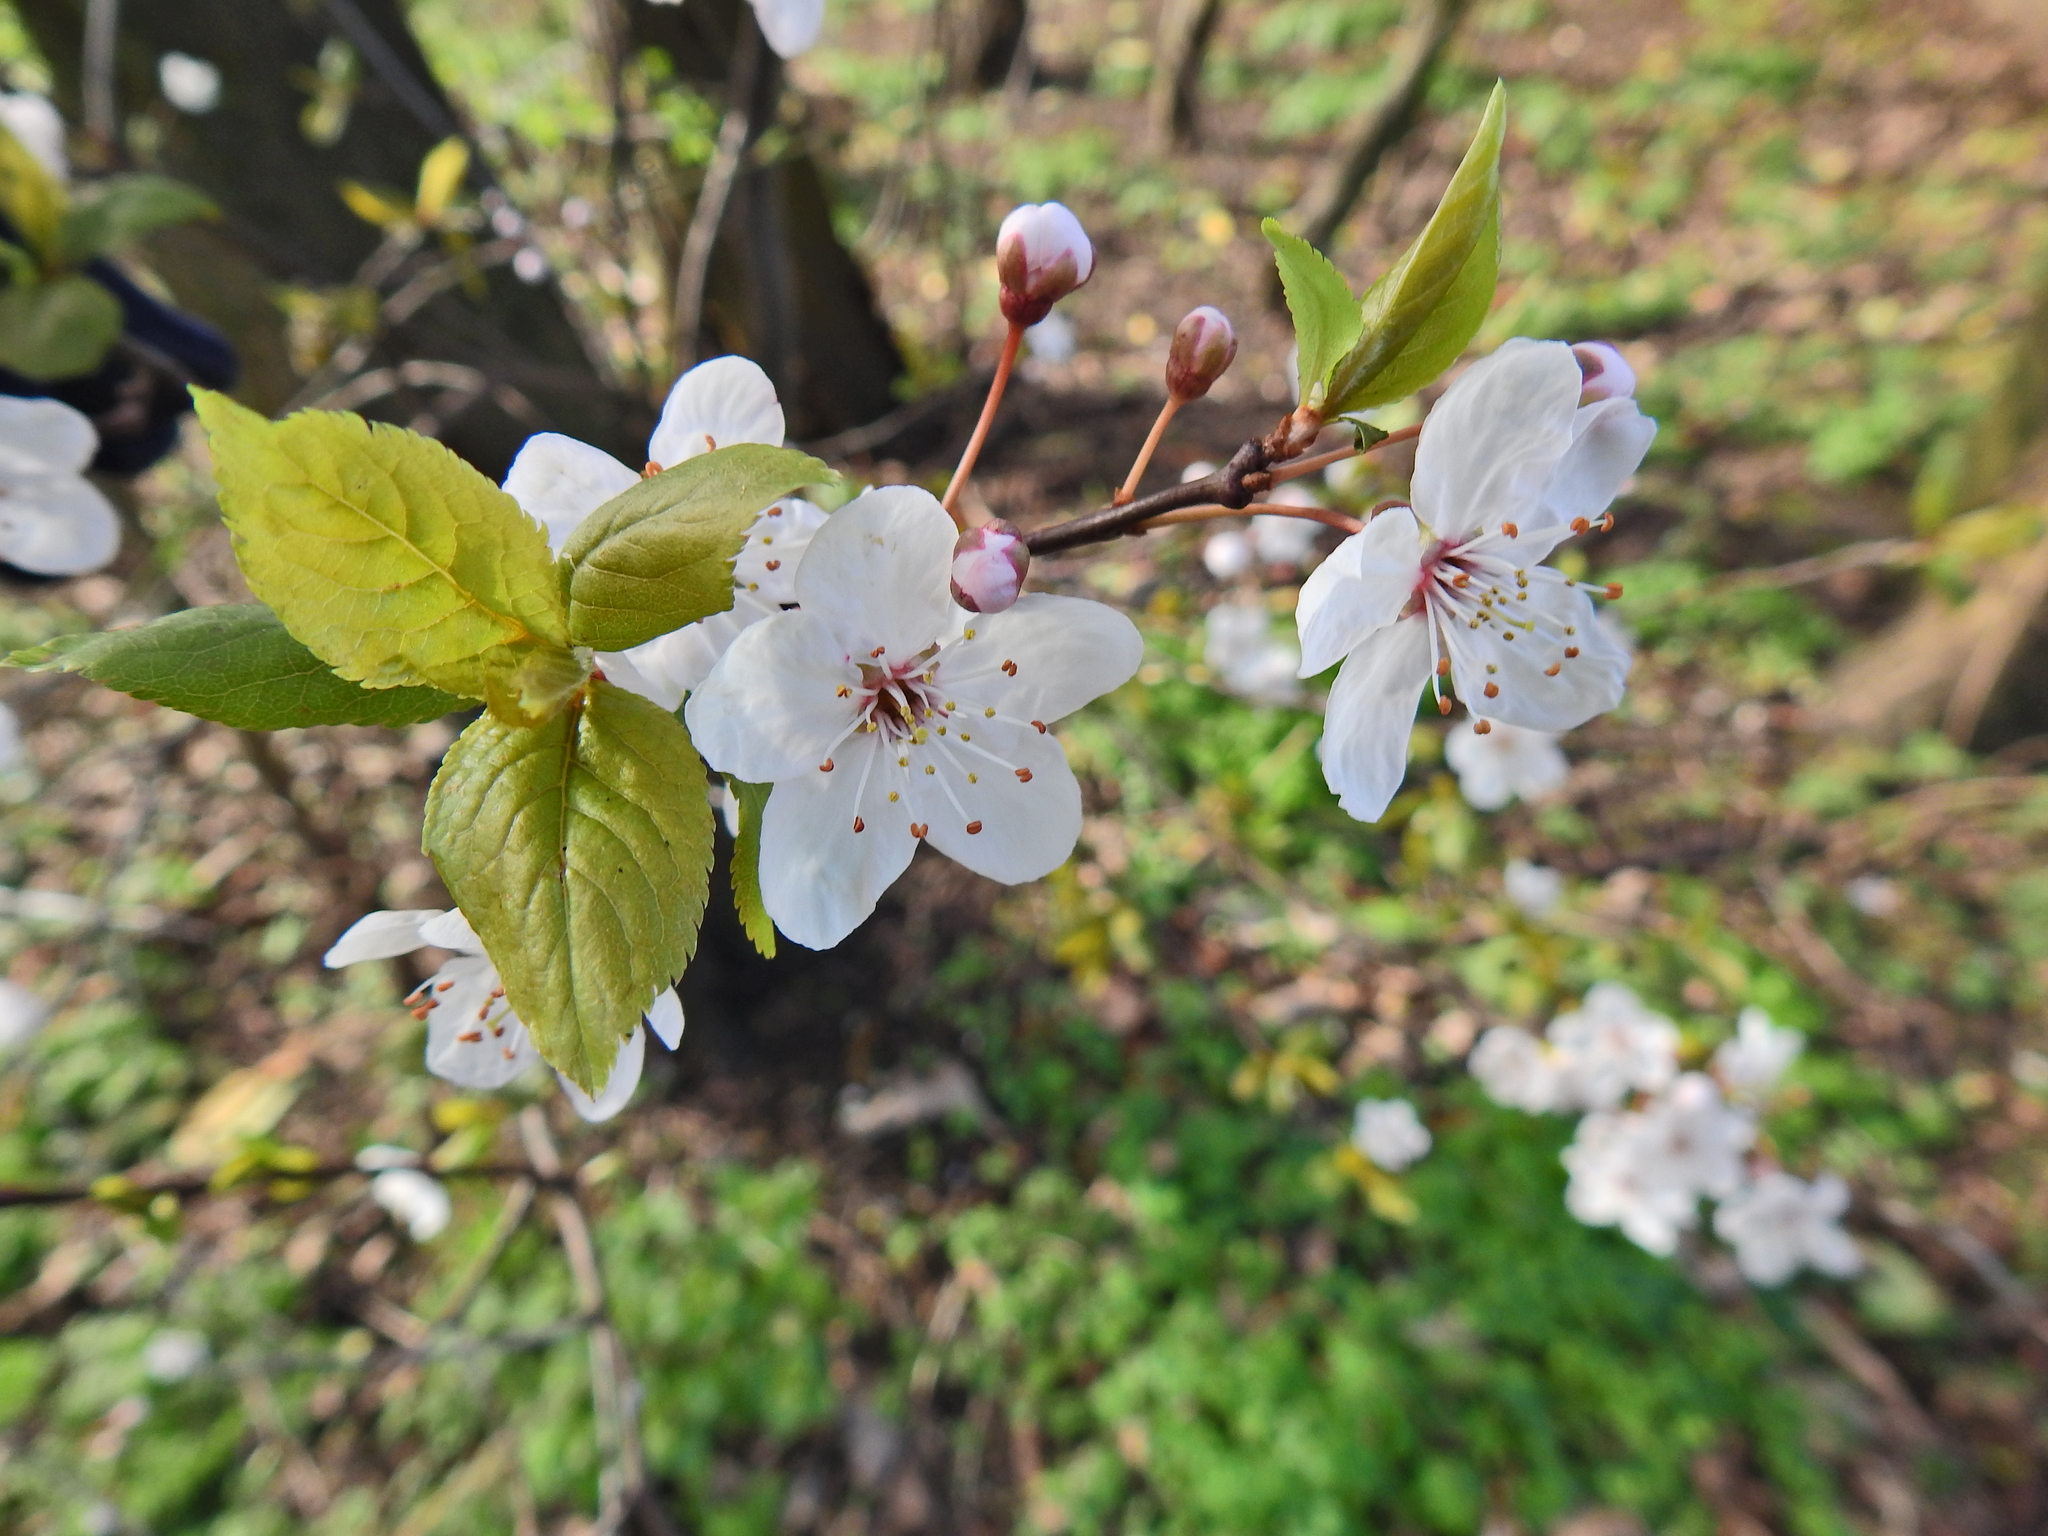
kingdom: Plantae
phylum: Tracheophyta
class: Magnoliopsida
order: Rosales
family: Rosaceae
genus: Prunus
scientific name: Prunus cerasifera
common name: Cherry plum
